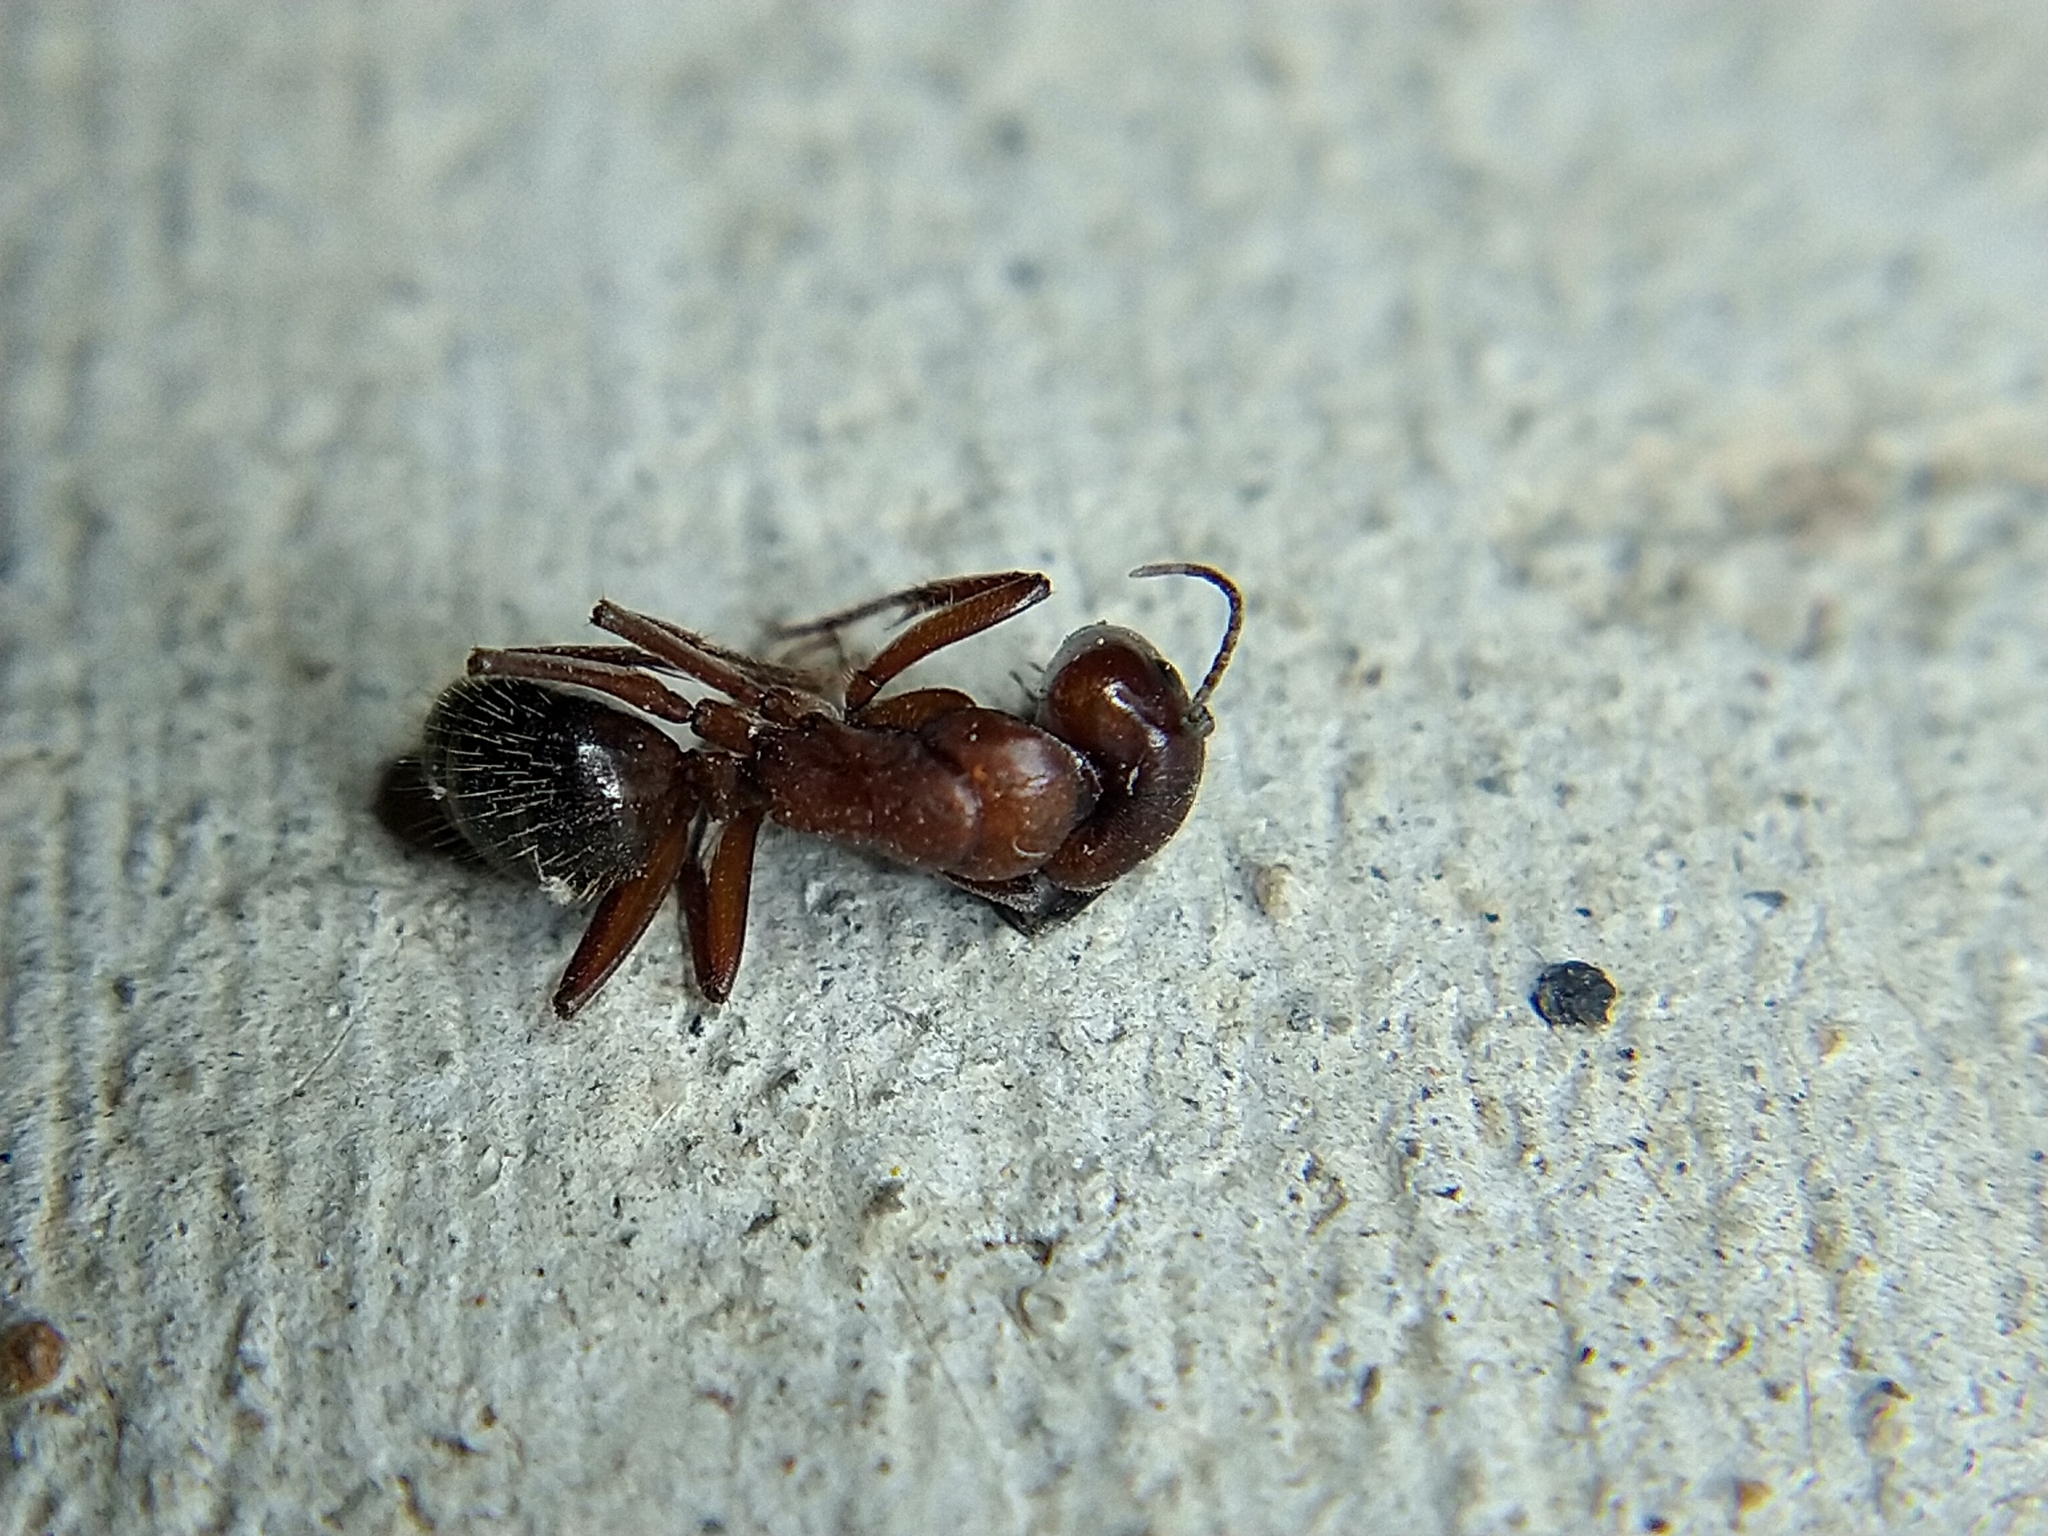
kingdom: Animalia
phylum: Arthropoda
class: Insecta
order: Hymenoptera
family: Formicidae
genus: Camponotus
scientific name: Camponotus
